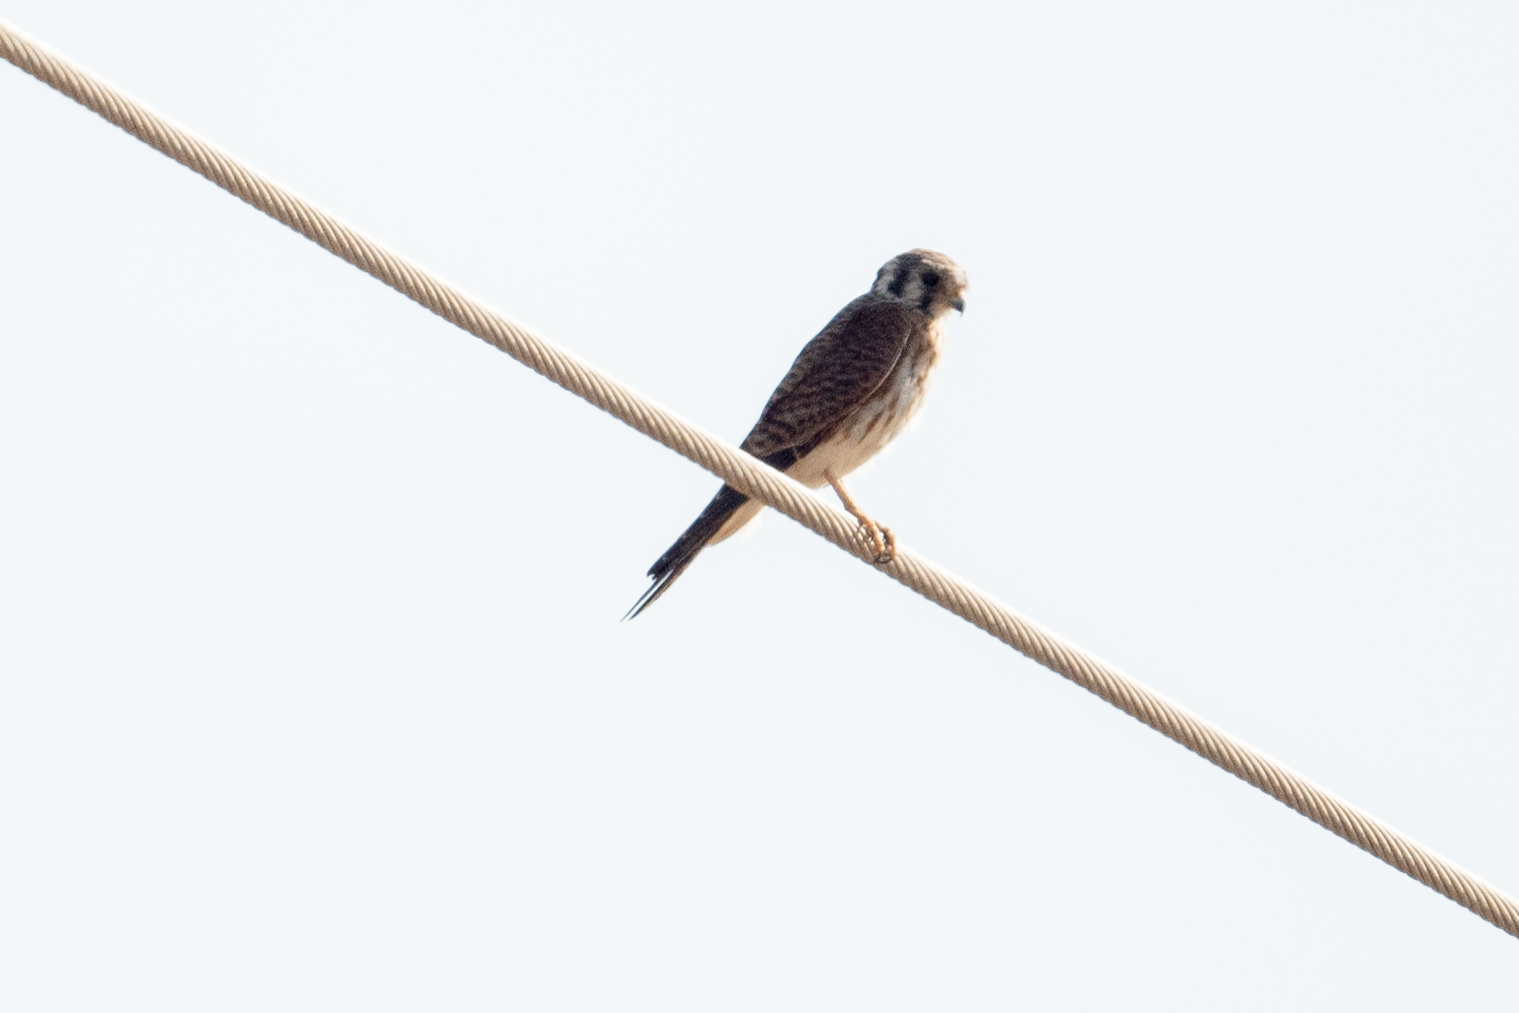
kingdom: Animalia
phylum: Chordata
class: Aves
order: Falconiformes
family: Falconidae
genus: Falco
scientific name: Falco sparverius
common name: American kestrel
